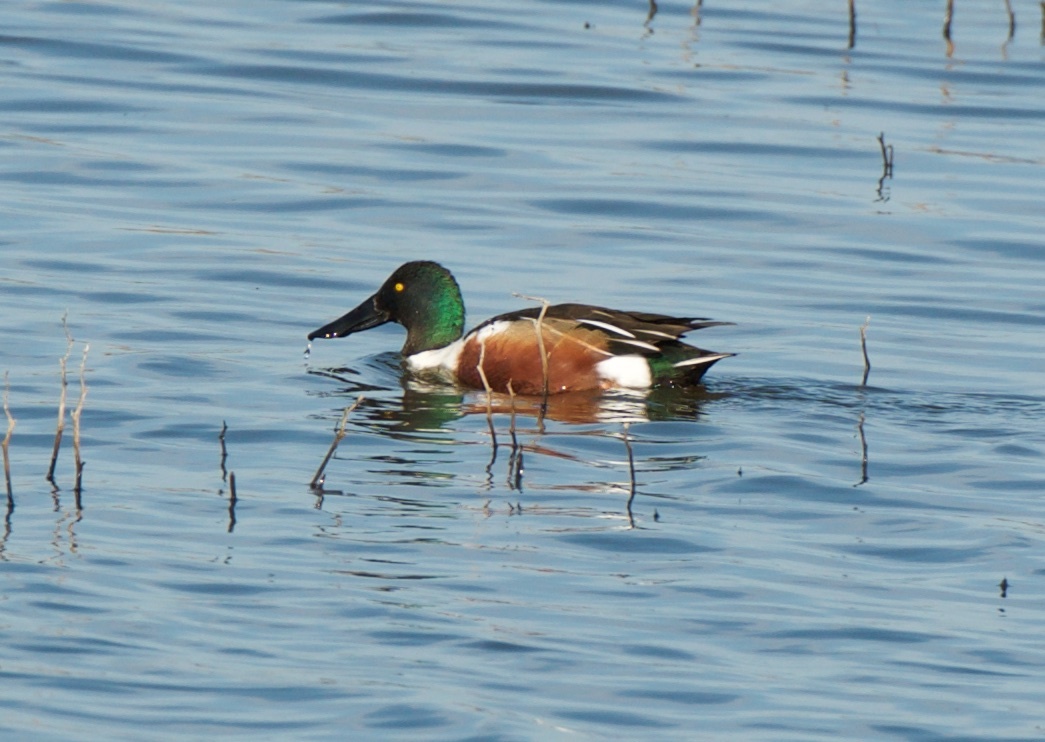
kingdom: Animalia
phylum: Chordata
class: Aves
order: Anseriformes
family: Anatidae
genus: Spatula
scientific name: Spatula clypeata
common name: Northern shoveler
